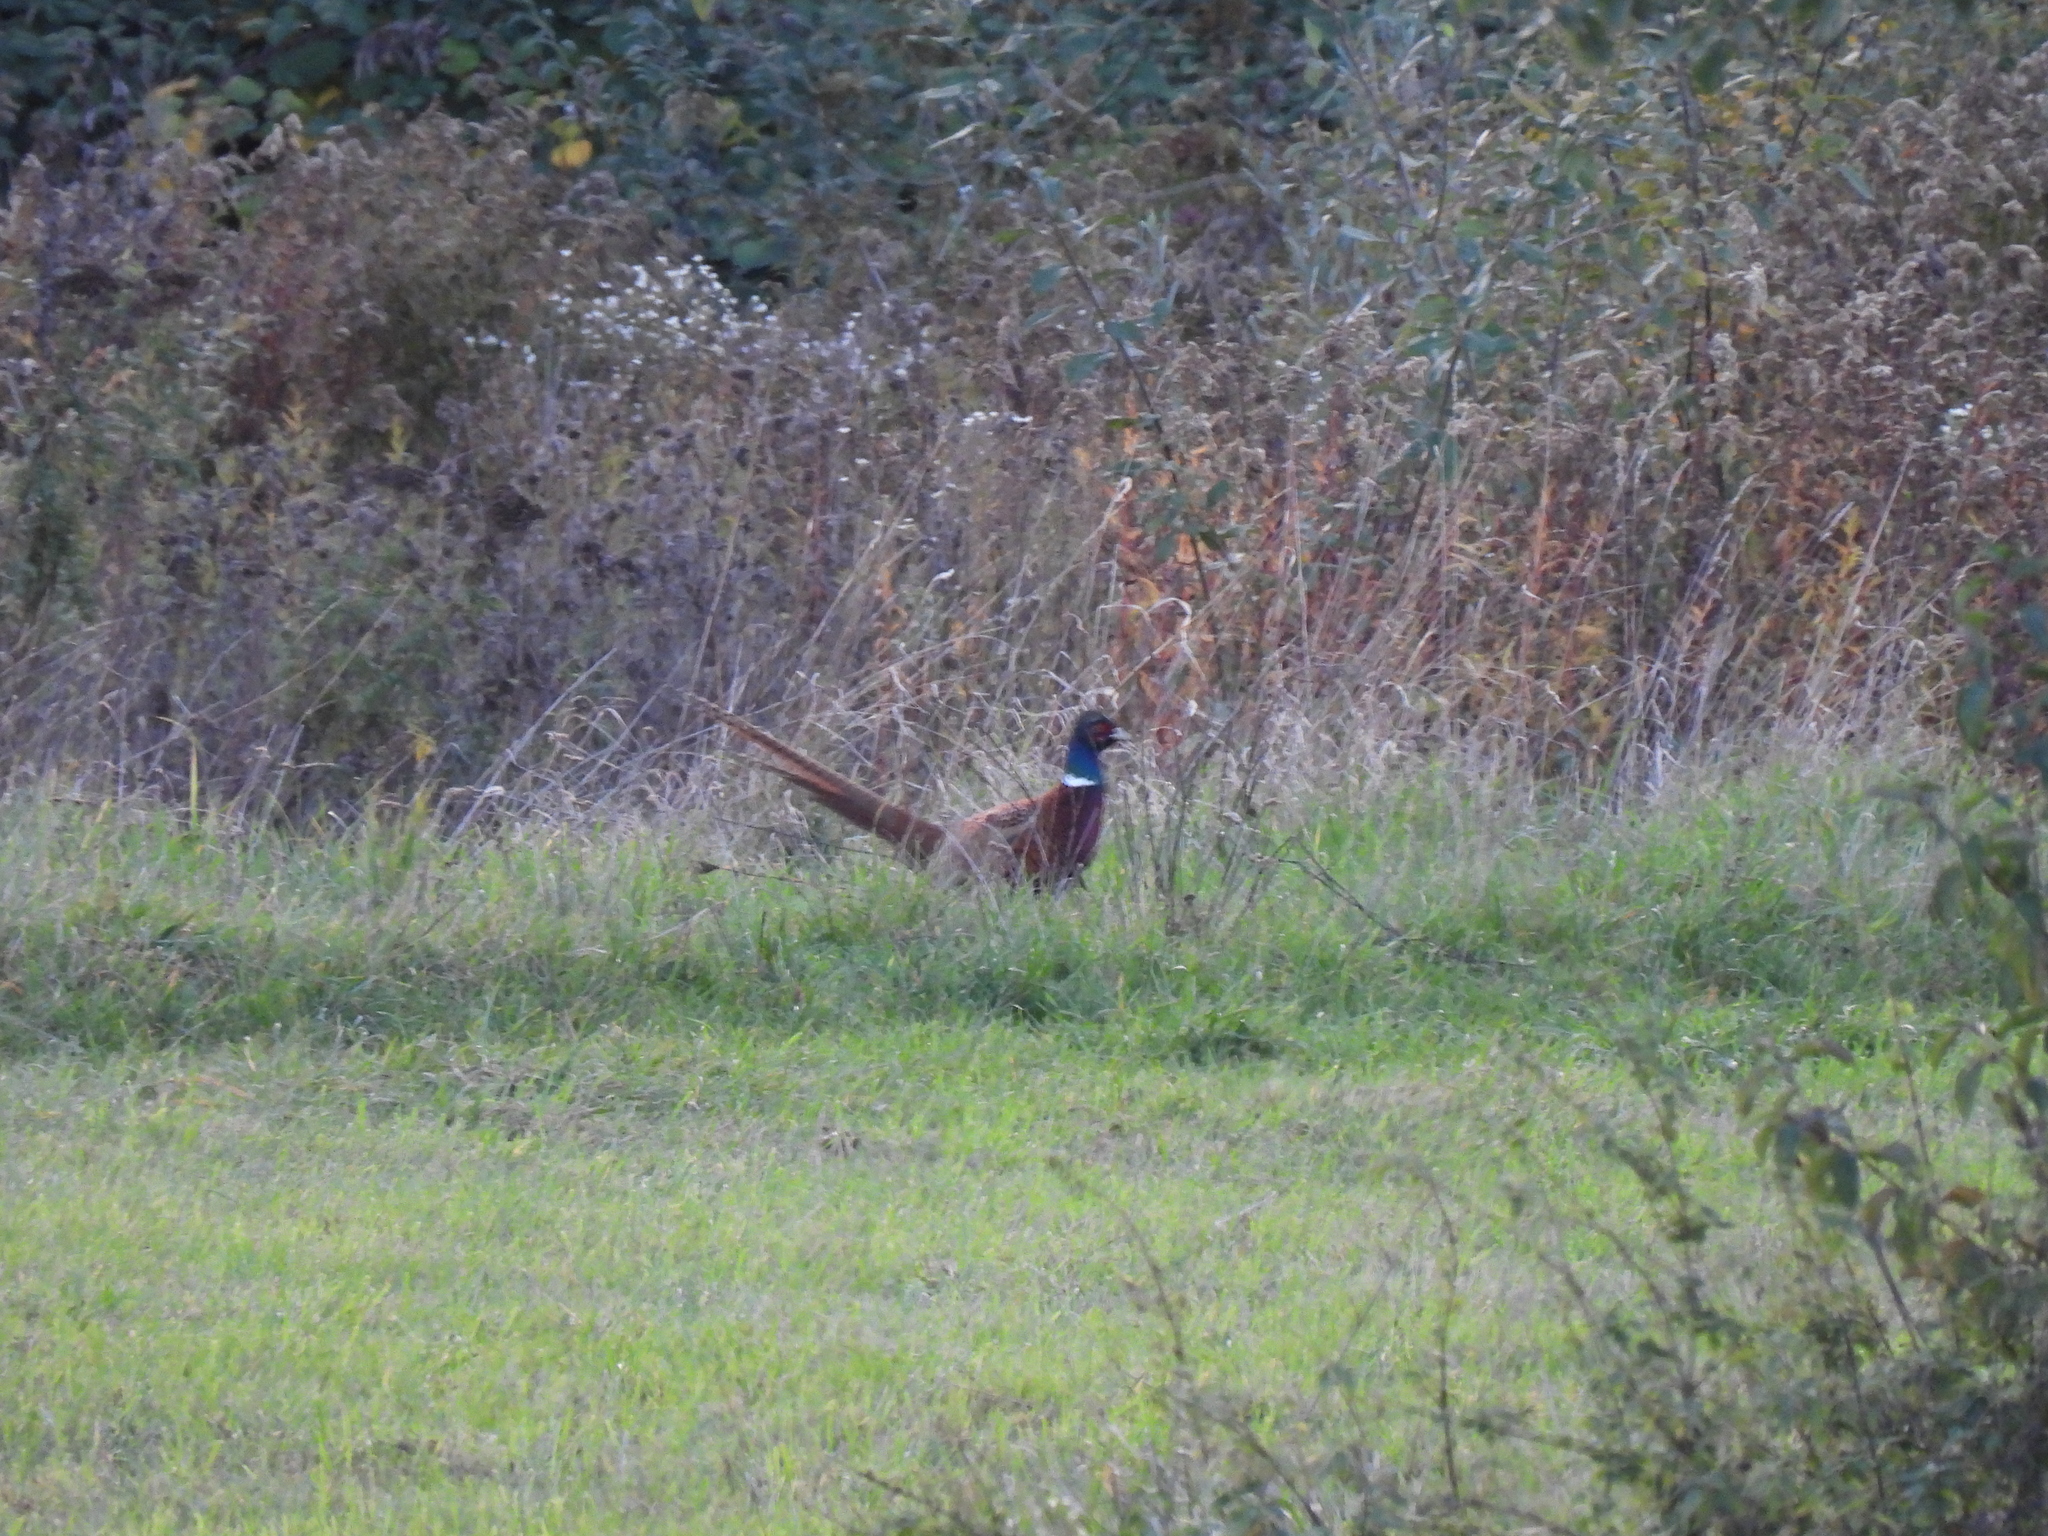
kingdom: Animalia
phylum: Chordata
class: Aves
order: Galliformes
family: Phasianidae
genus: Phasianus
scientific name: Phasianus colchicus
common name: Common pheasant
